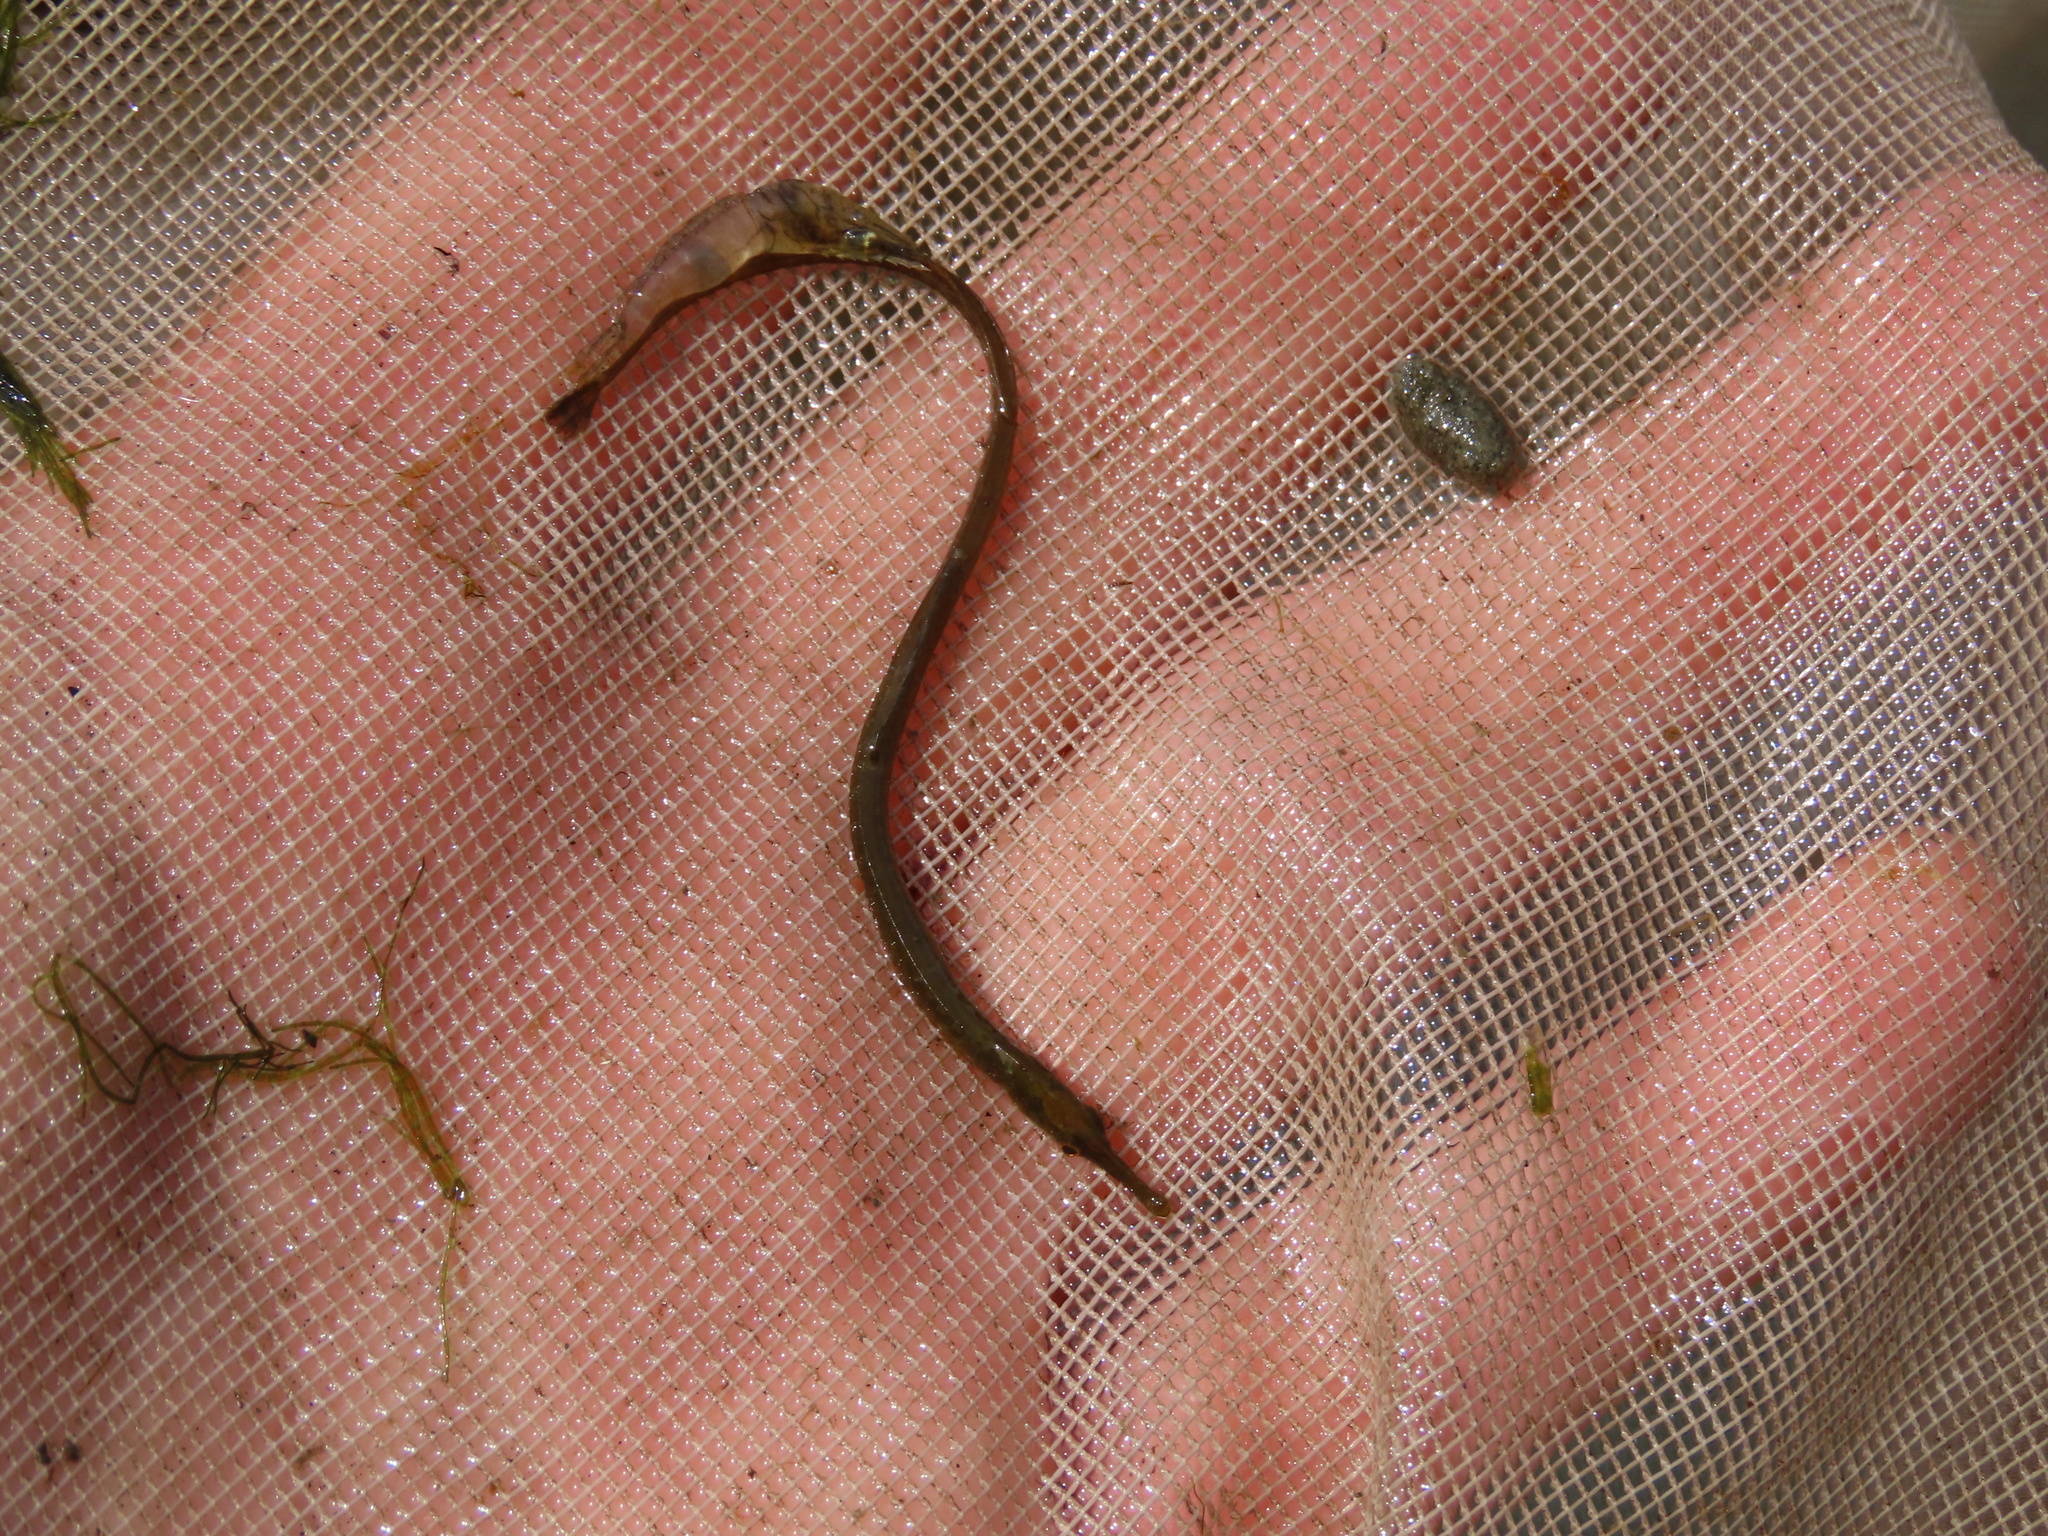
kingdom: Animalia
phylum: Chordata
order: Syngnathiformes
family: Syngnathidae
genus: Syngnathus
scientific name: Syngnathus fuscus
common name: Northern pipefish
